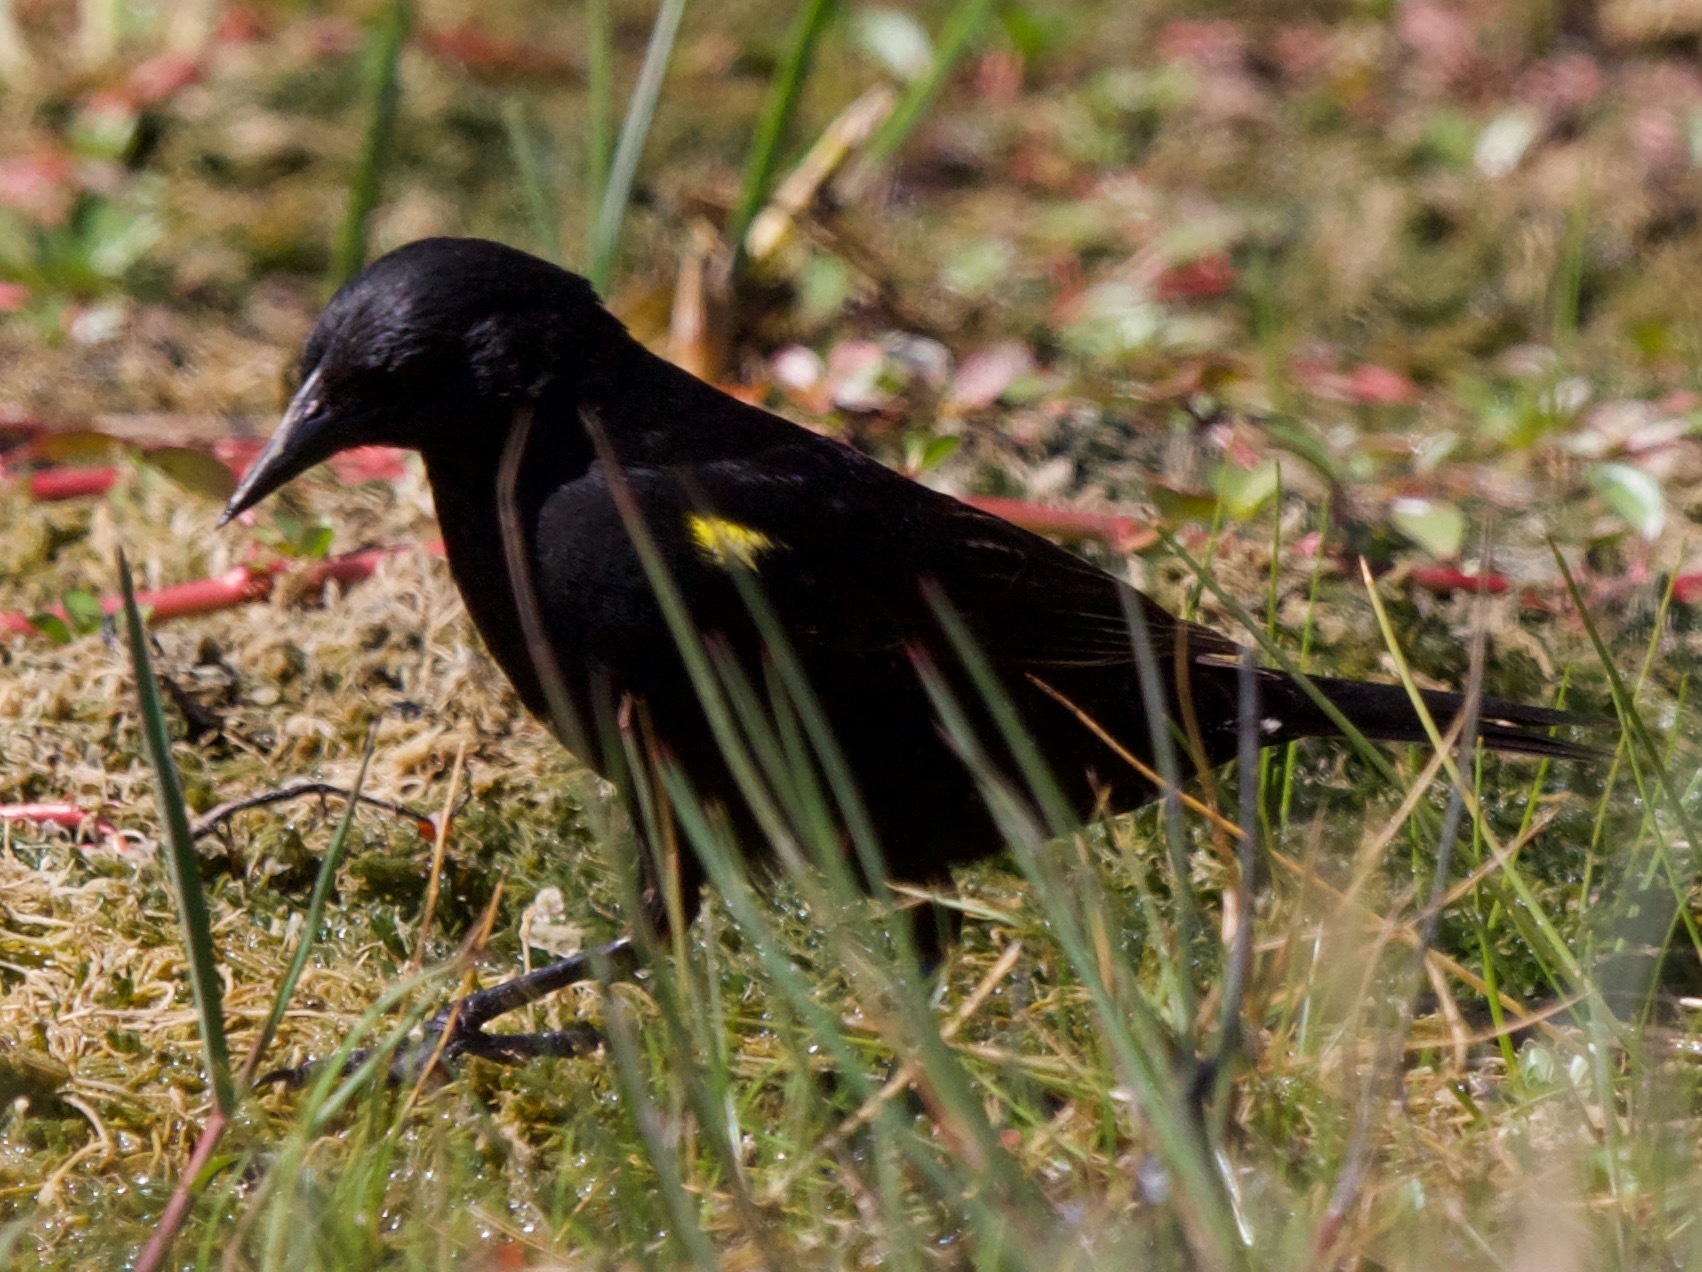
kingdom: Animalia
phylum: Chordata
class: Aves
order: Passeriformes
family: Icteridae
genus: Agelasticus
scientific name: Agelasticus thilius
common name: Yellow-winged blackbird
